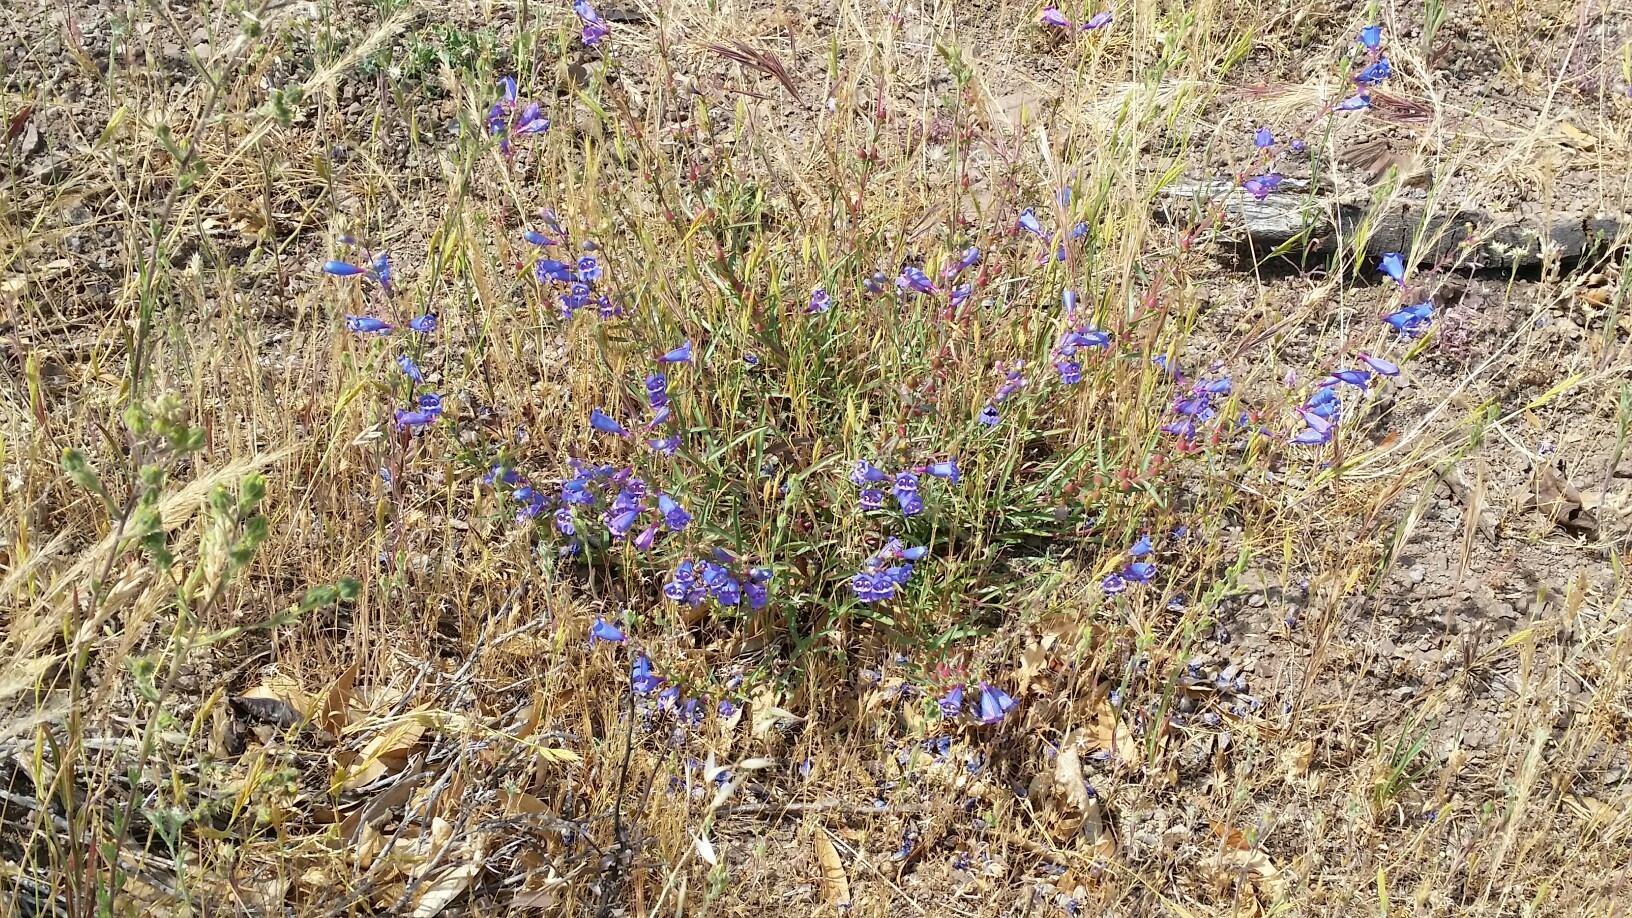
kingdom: Plantae
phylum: Tracheophyta
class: Magnoliopsida
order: Lamiales
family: Plantaginaceae
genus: Penstemon
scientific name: Penstemon heterophyllus
